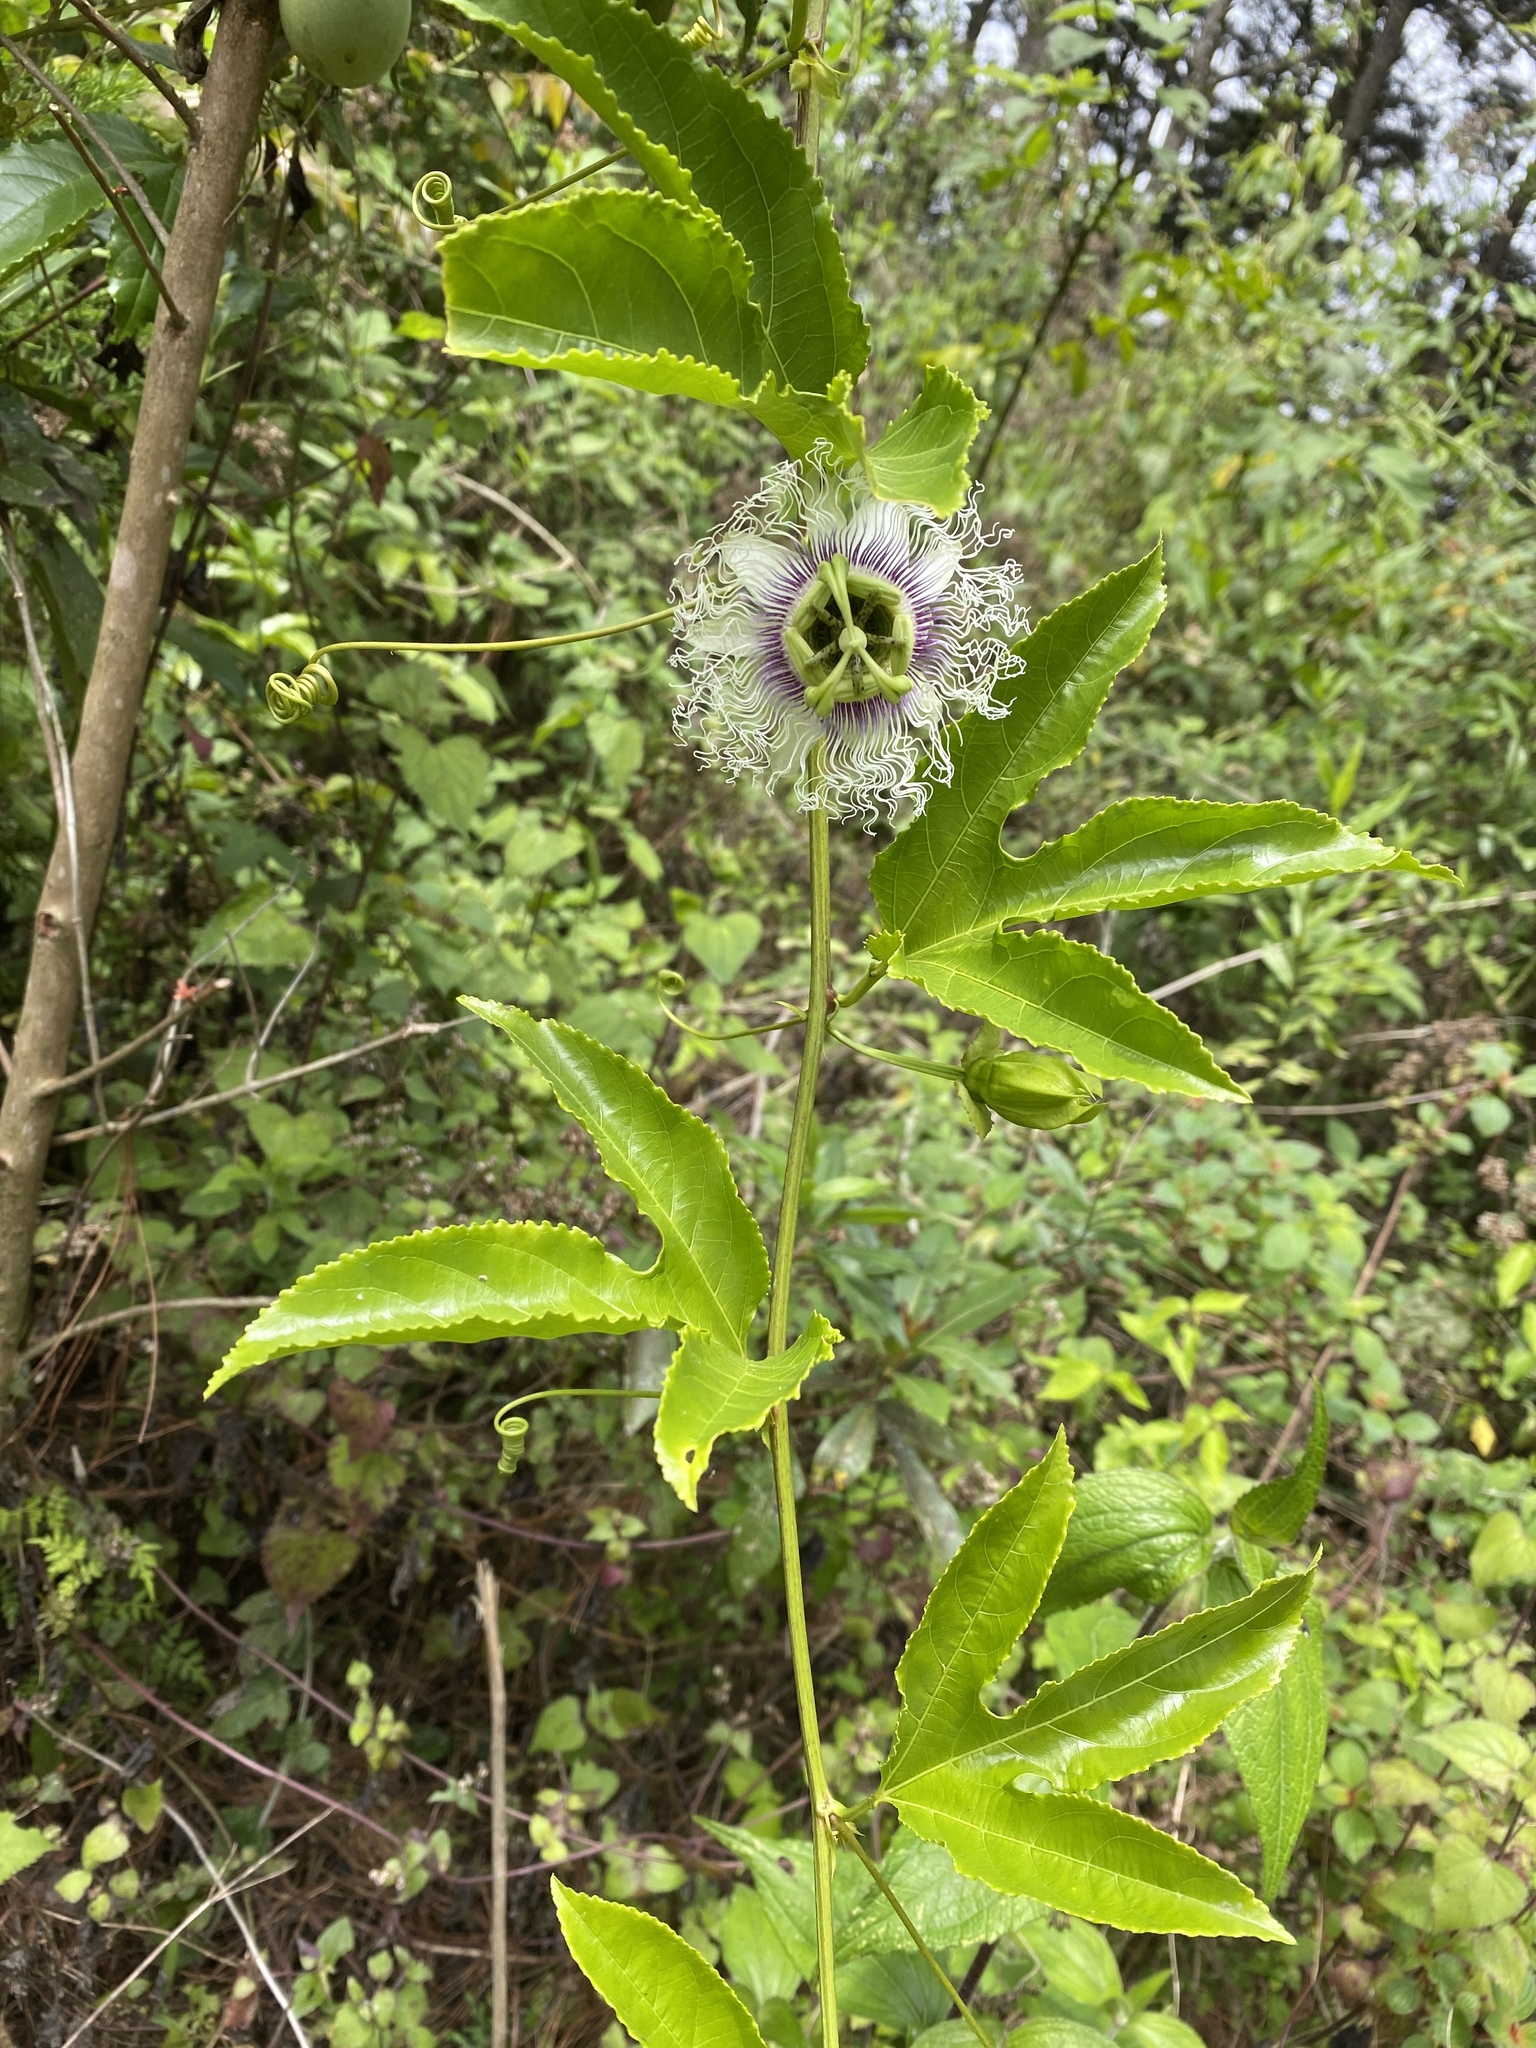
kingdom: Plantae
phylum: Tracheophyta
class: Magnoliopsida
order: Malpighiales
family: Passifloraceae
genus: Passiflora
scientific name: Passiflora edulis
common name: Purple granadilla
